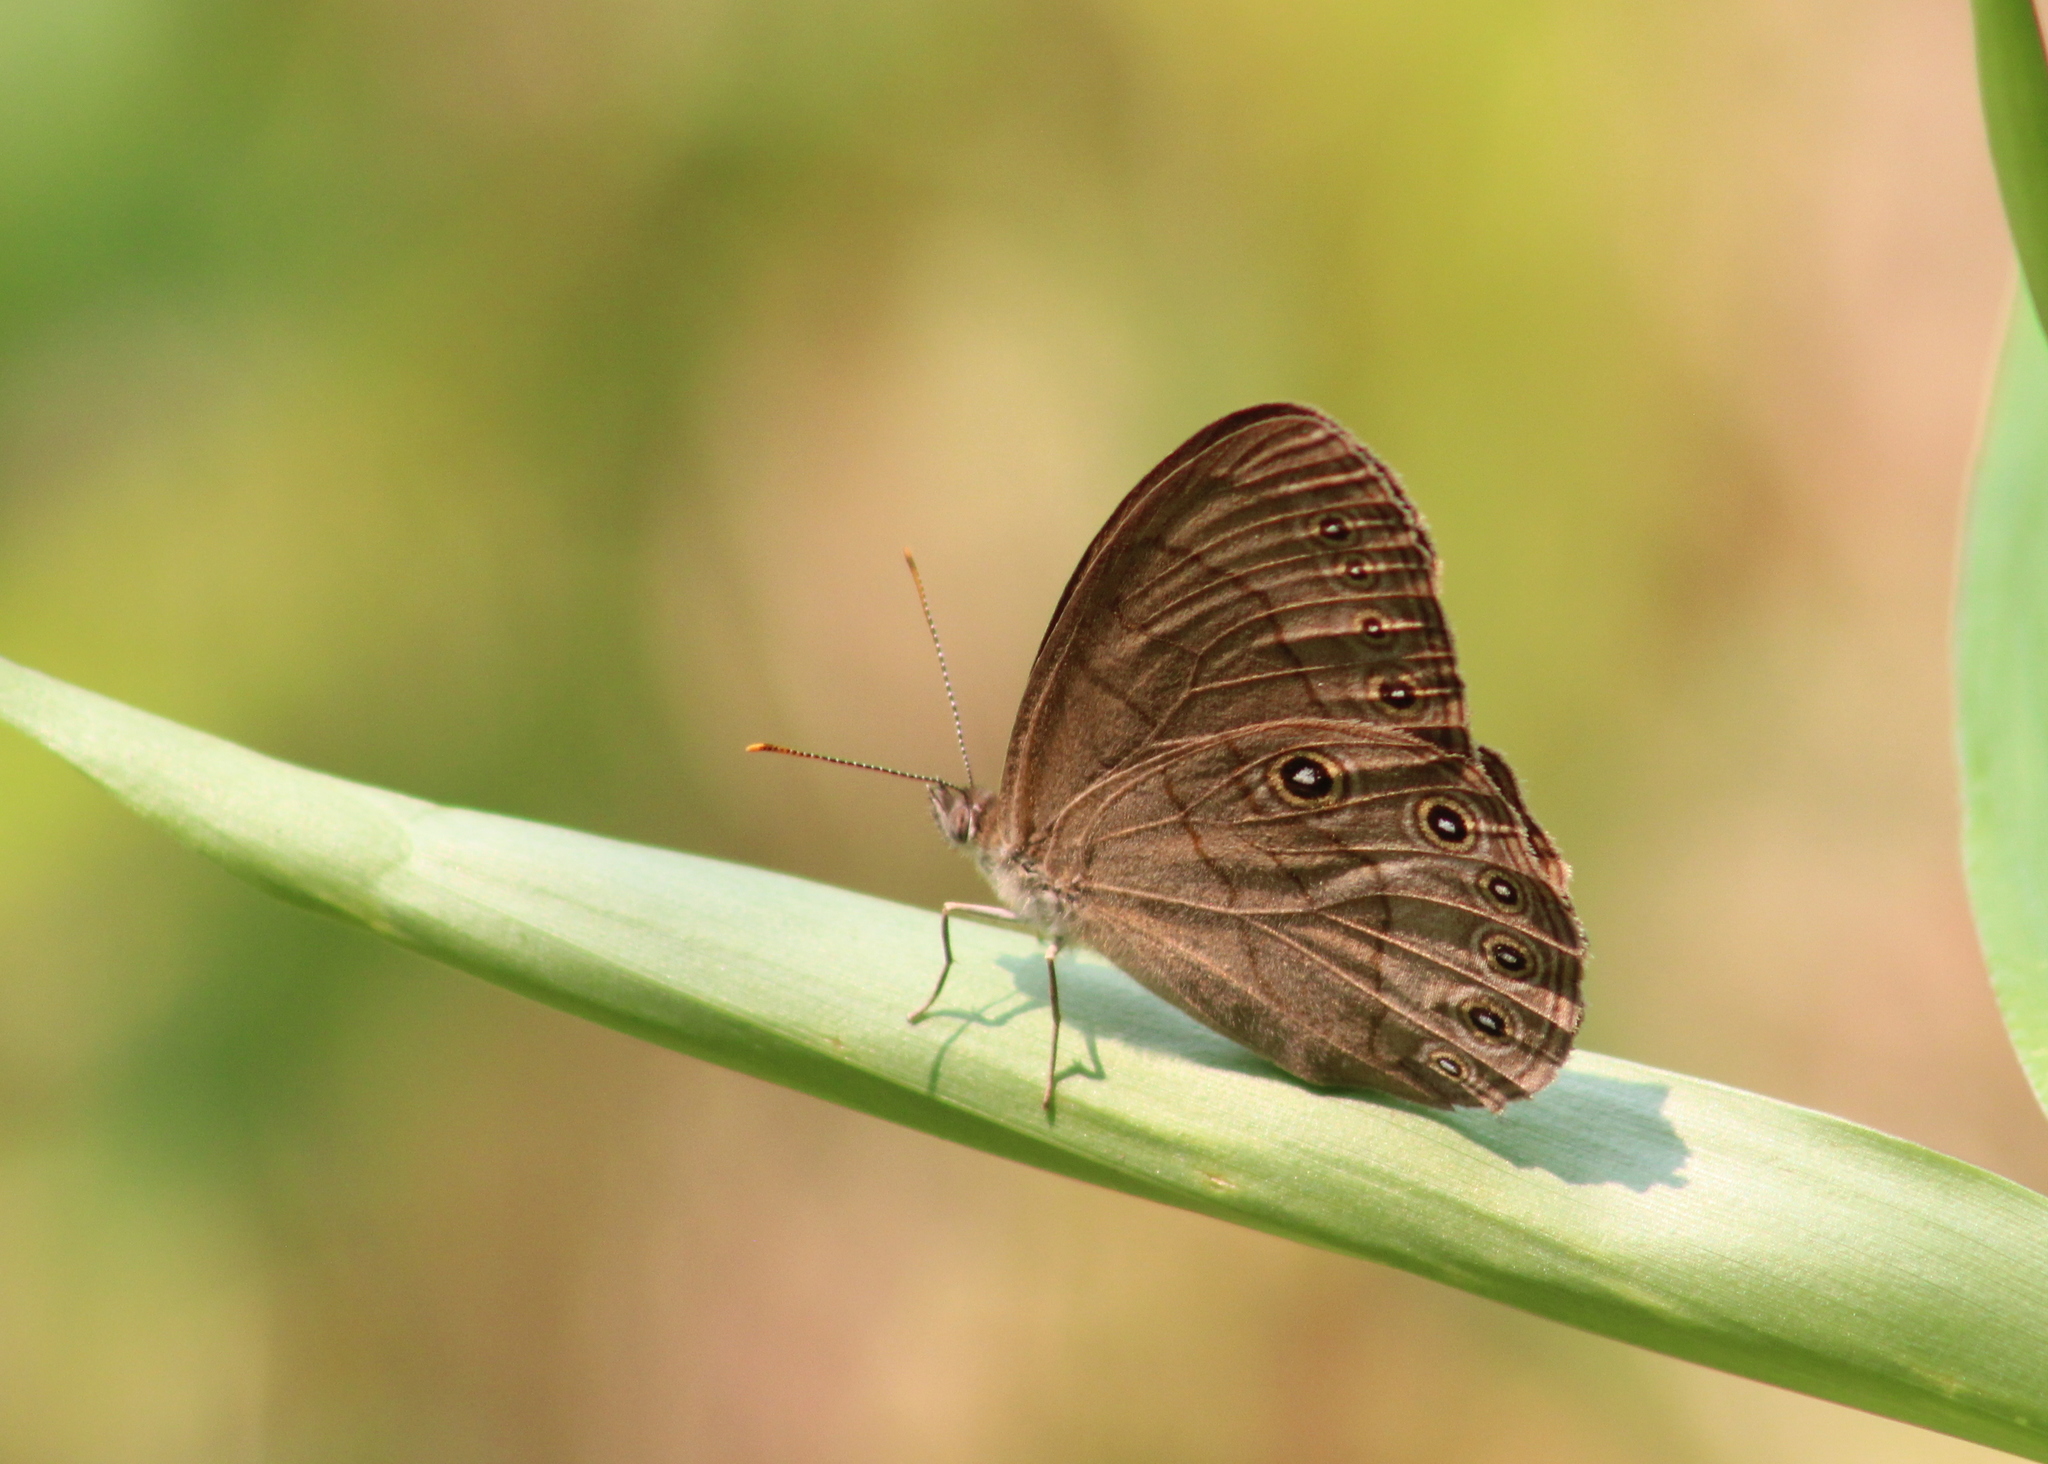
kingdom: Animalia
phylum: Arthropoda
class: Insecta
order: Lepidoptera
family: Nymphalidae
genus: Lethe
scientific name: Lethe eurydice
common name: Eyed brown
